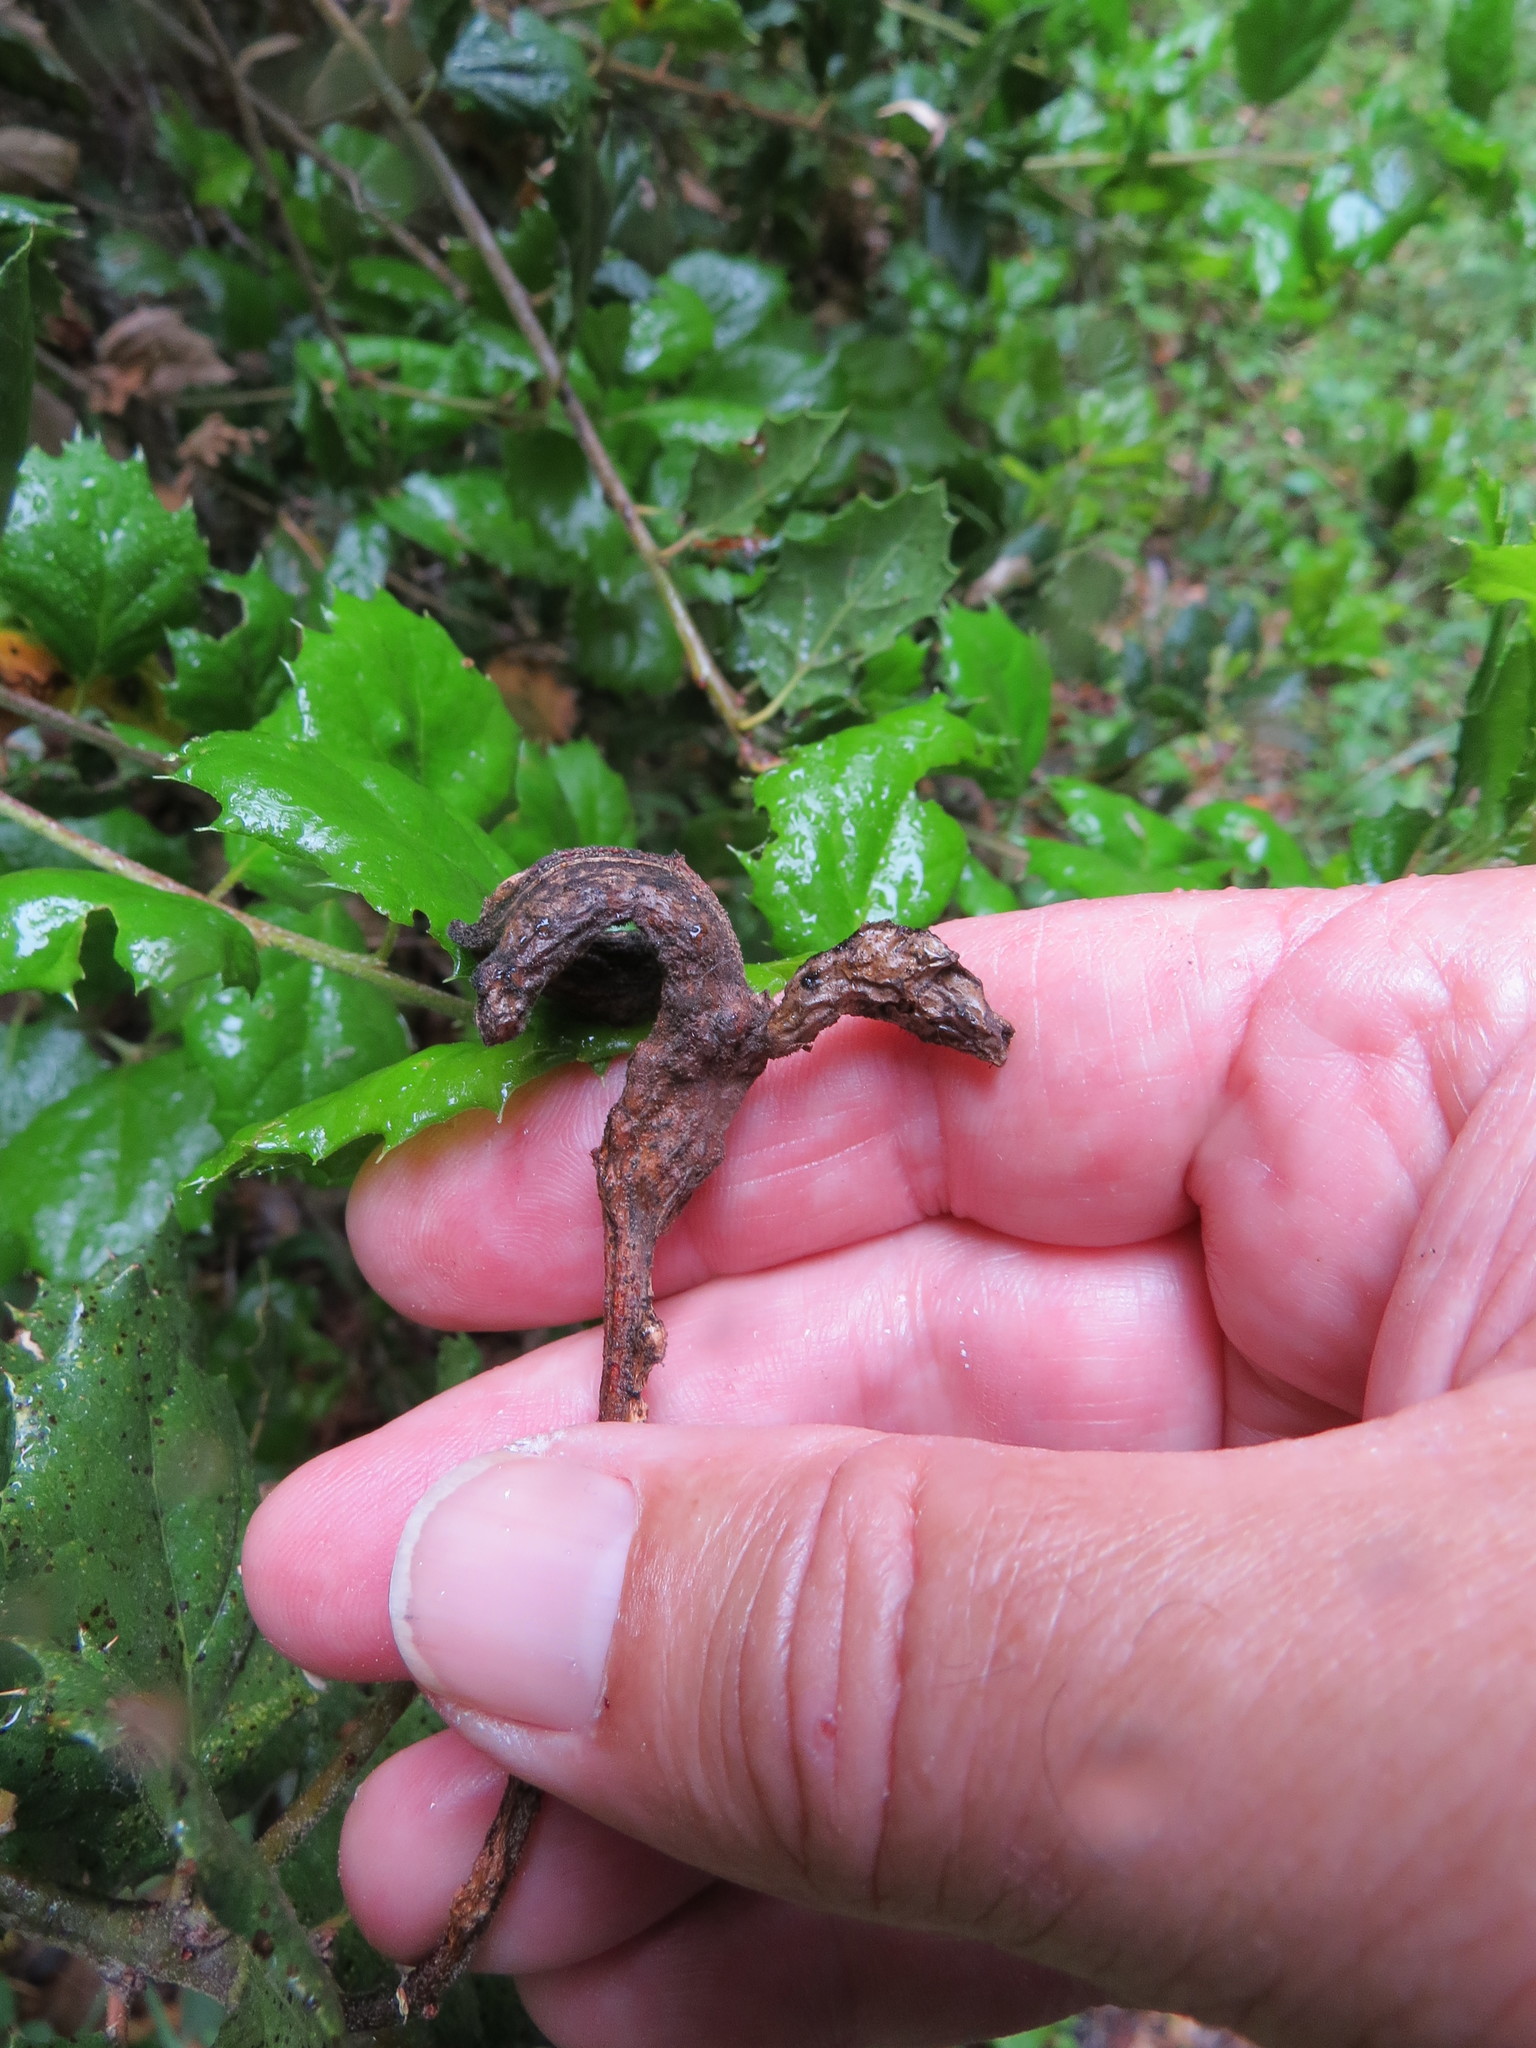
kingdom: Animalia
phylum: Arthropoda
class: Insecta
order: Hymenoptera
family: Cynipidae
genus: Melikaiella
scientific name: Melikaiella
